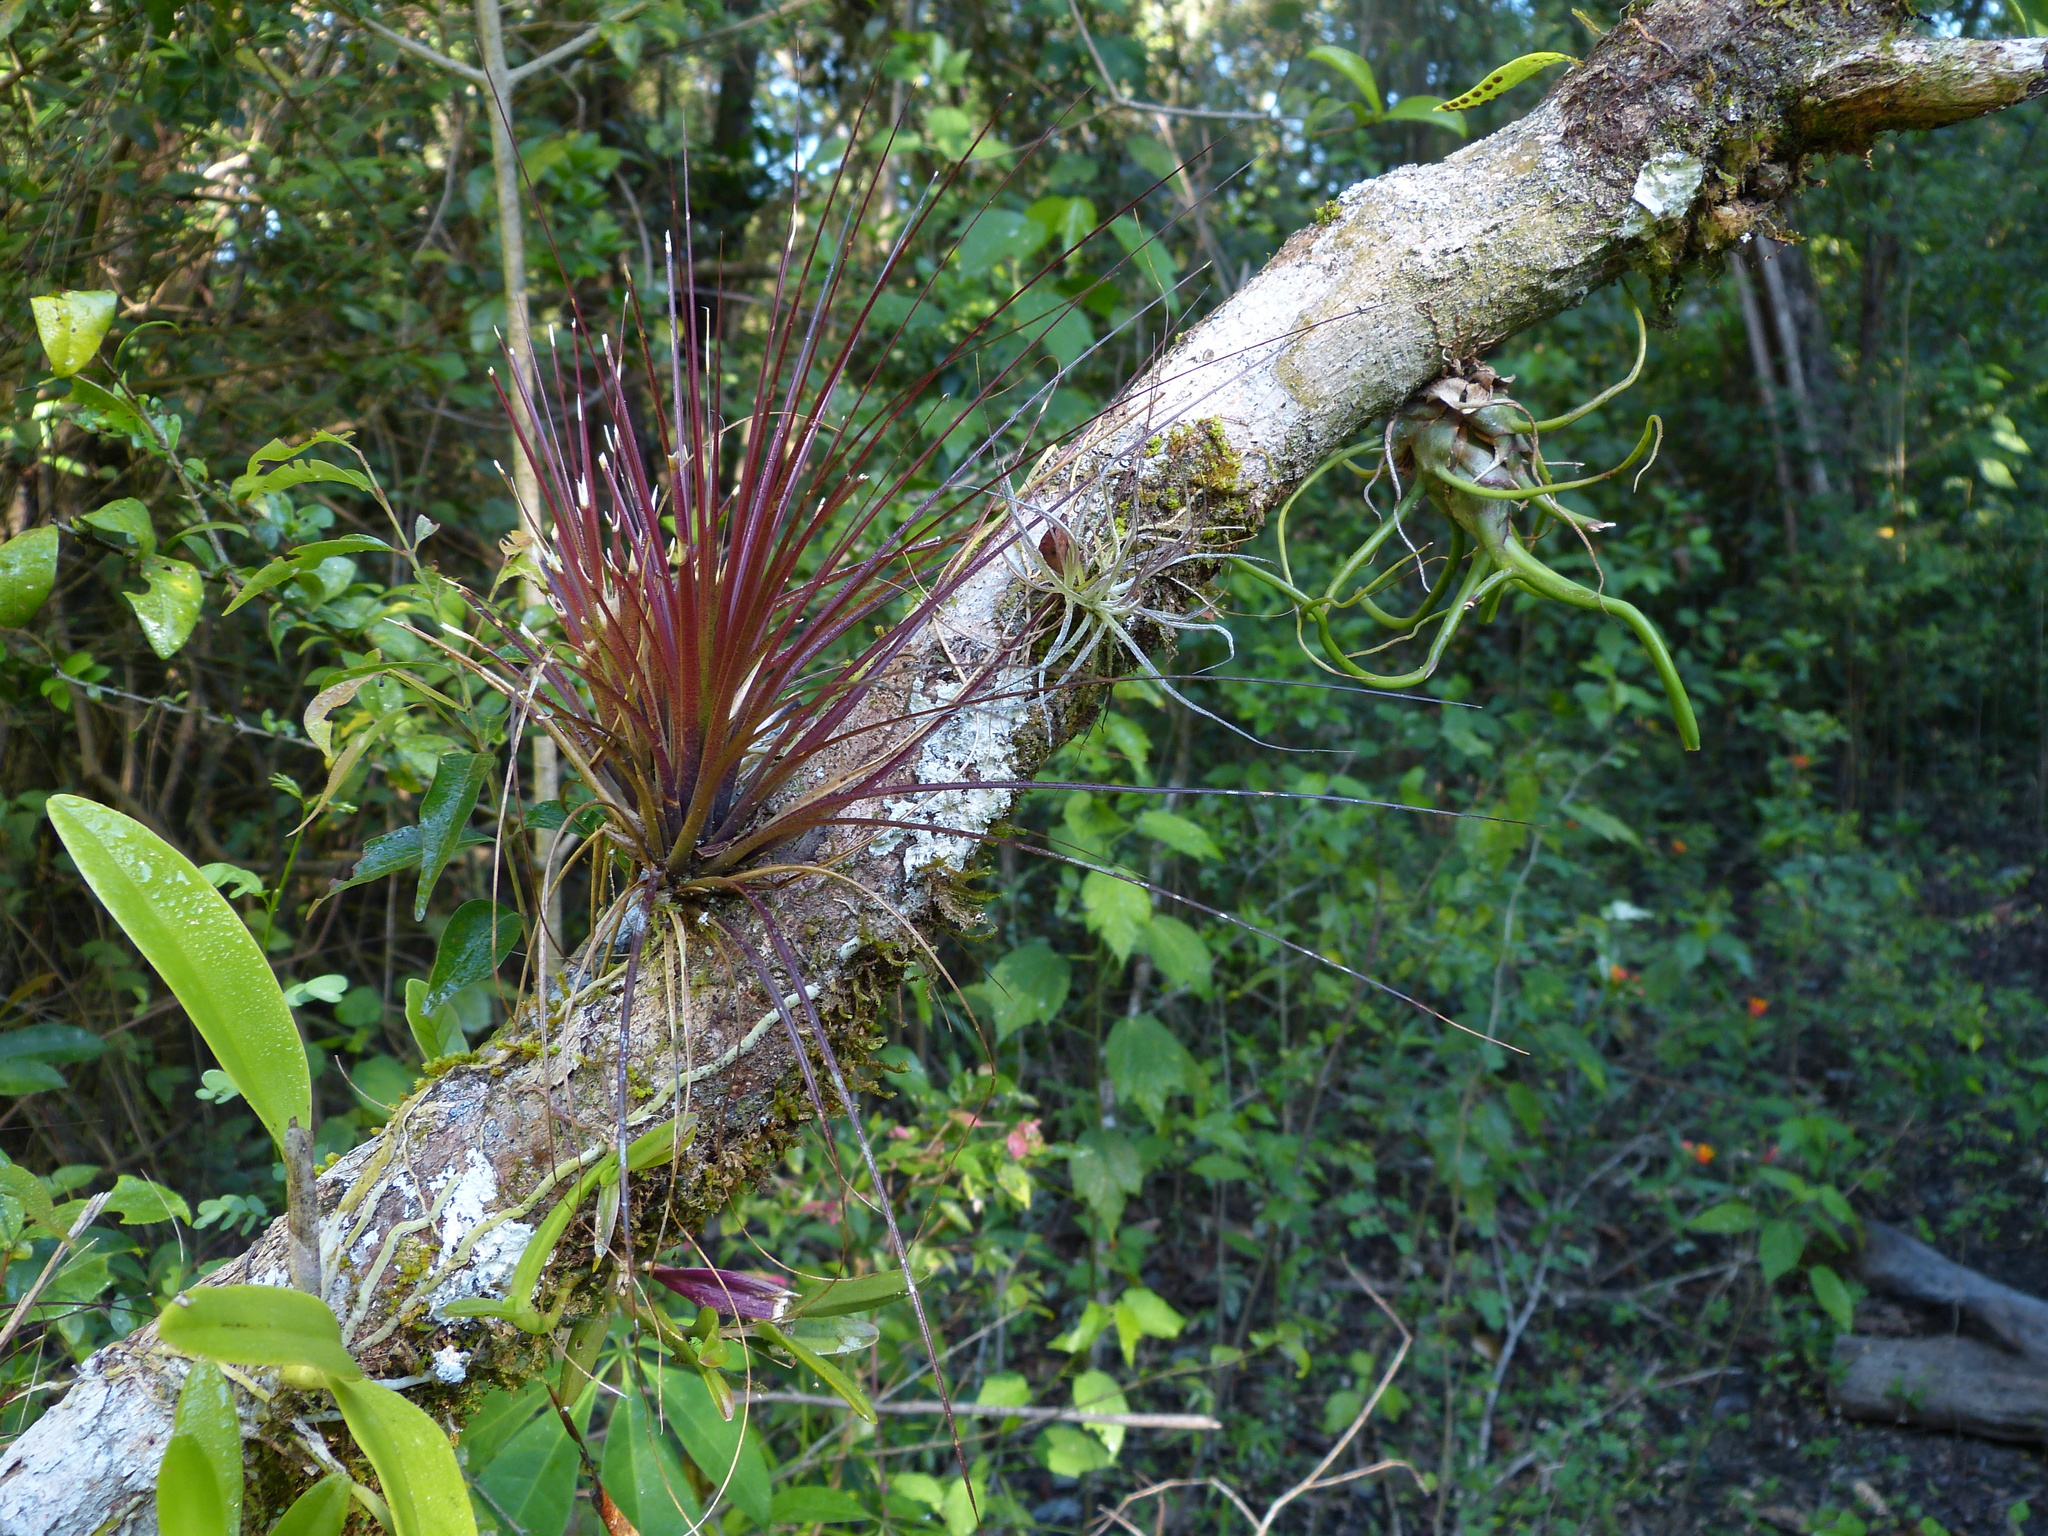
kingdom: Plantae
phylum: Tracheophyta
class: Liliopsida
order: Poales
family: Bromeliaceae
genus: Tillandsia
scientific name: Tillandsia bulbosa
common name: Bulbous airplant
